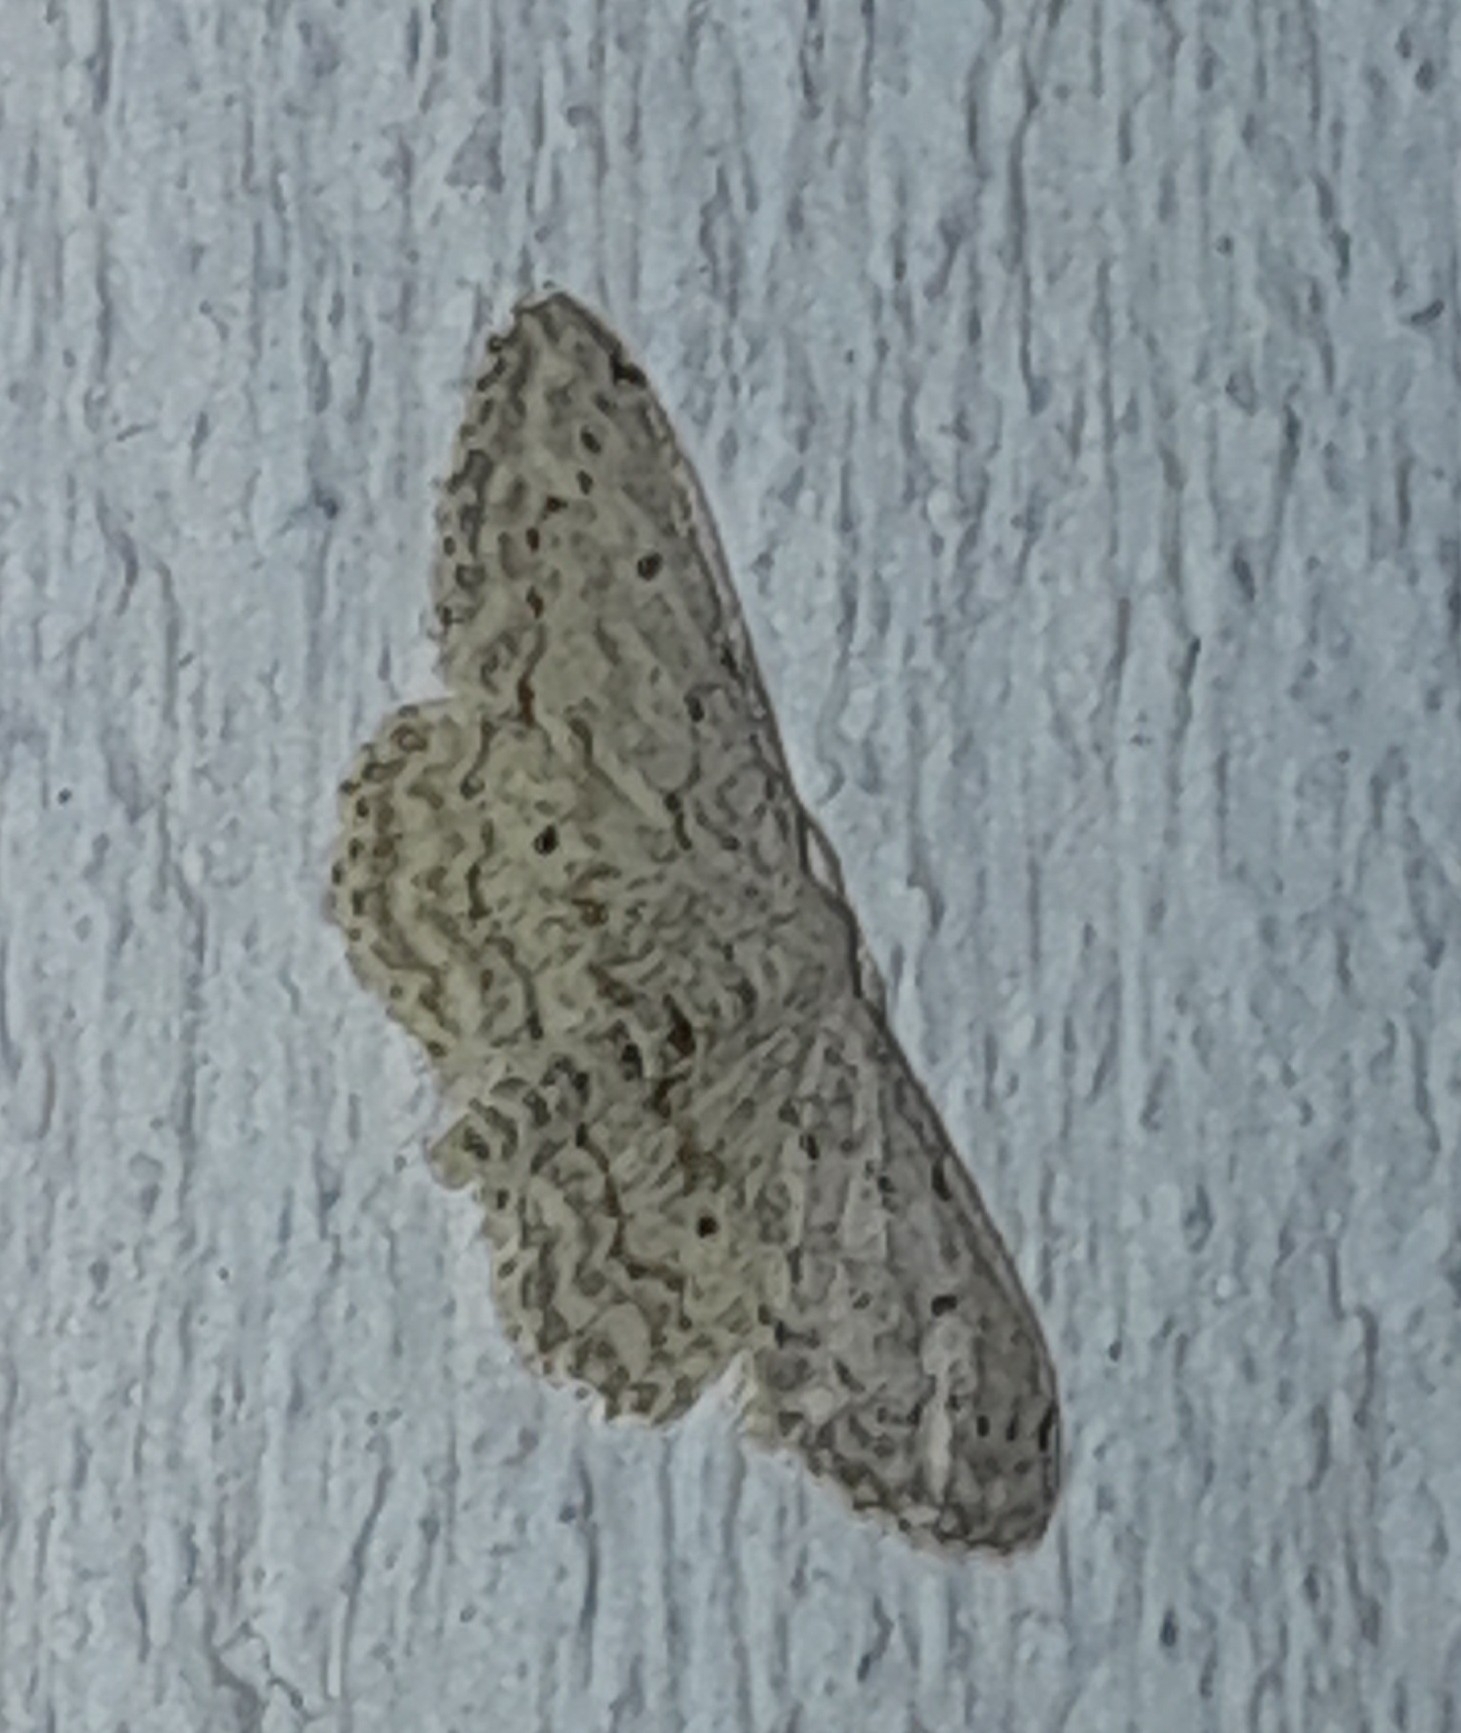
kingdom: Animalia
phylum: Arthropoda
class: Insecta
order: Lepidoptera
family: Geometridae
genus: Idaea
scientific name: Idaea seriata
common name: Small dusty wave
